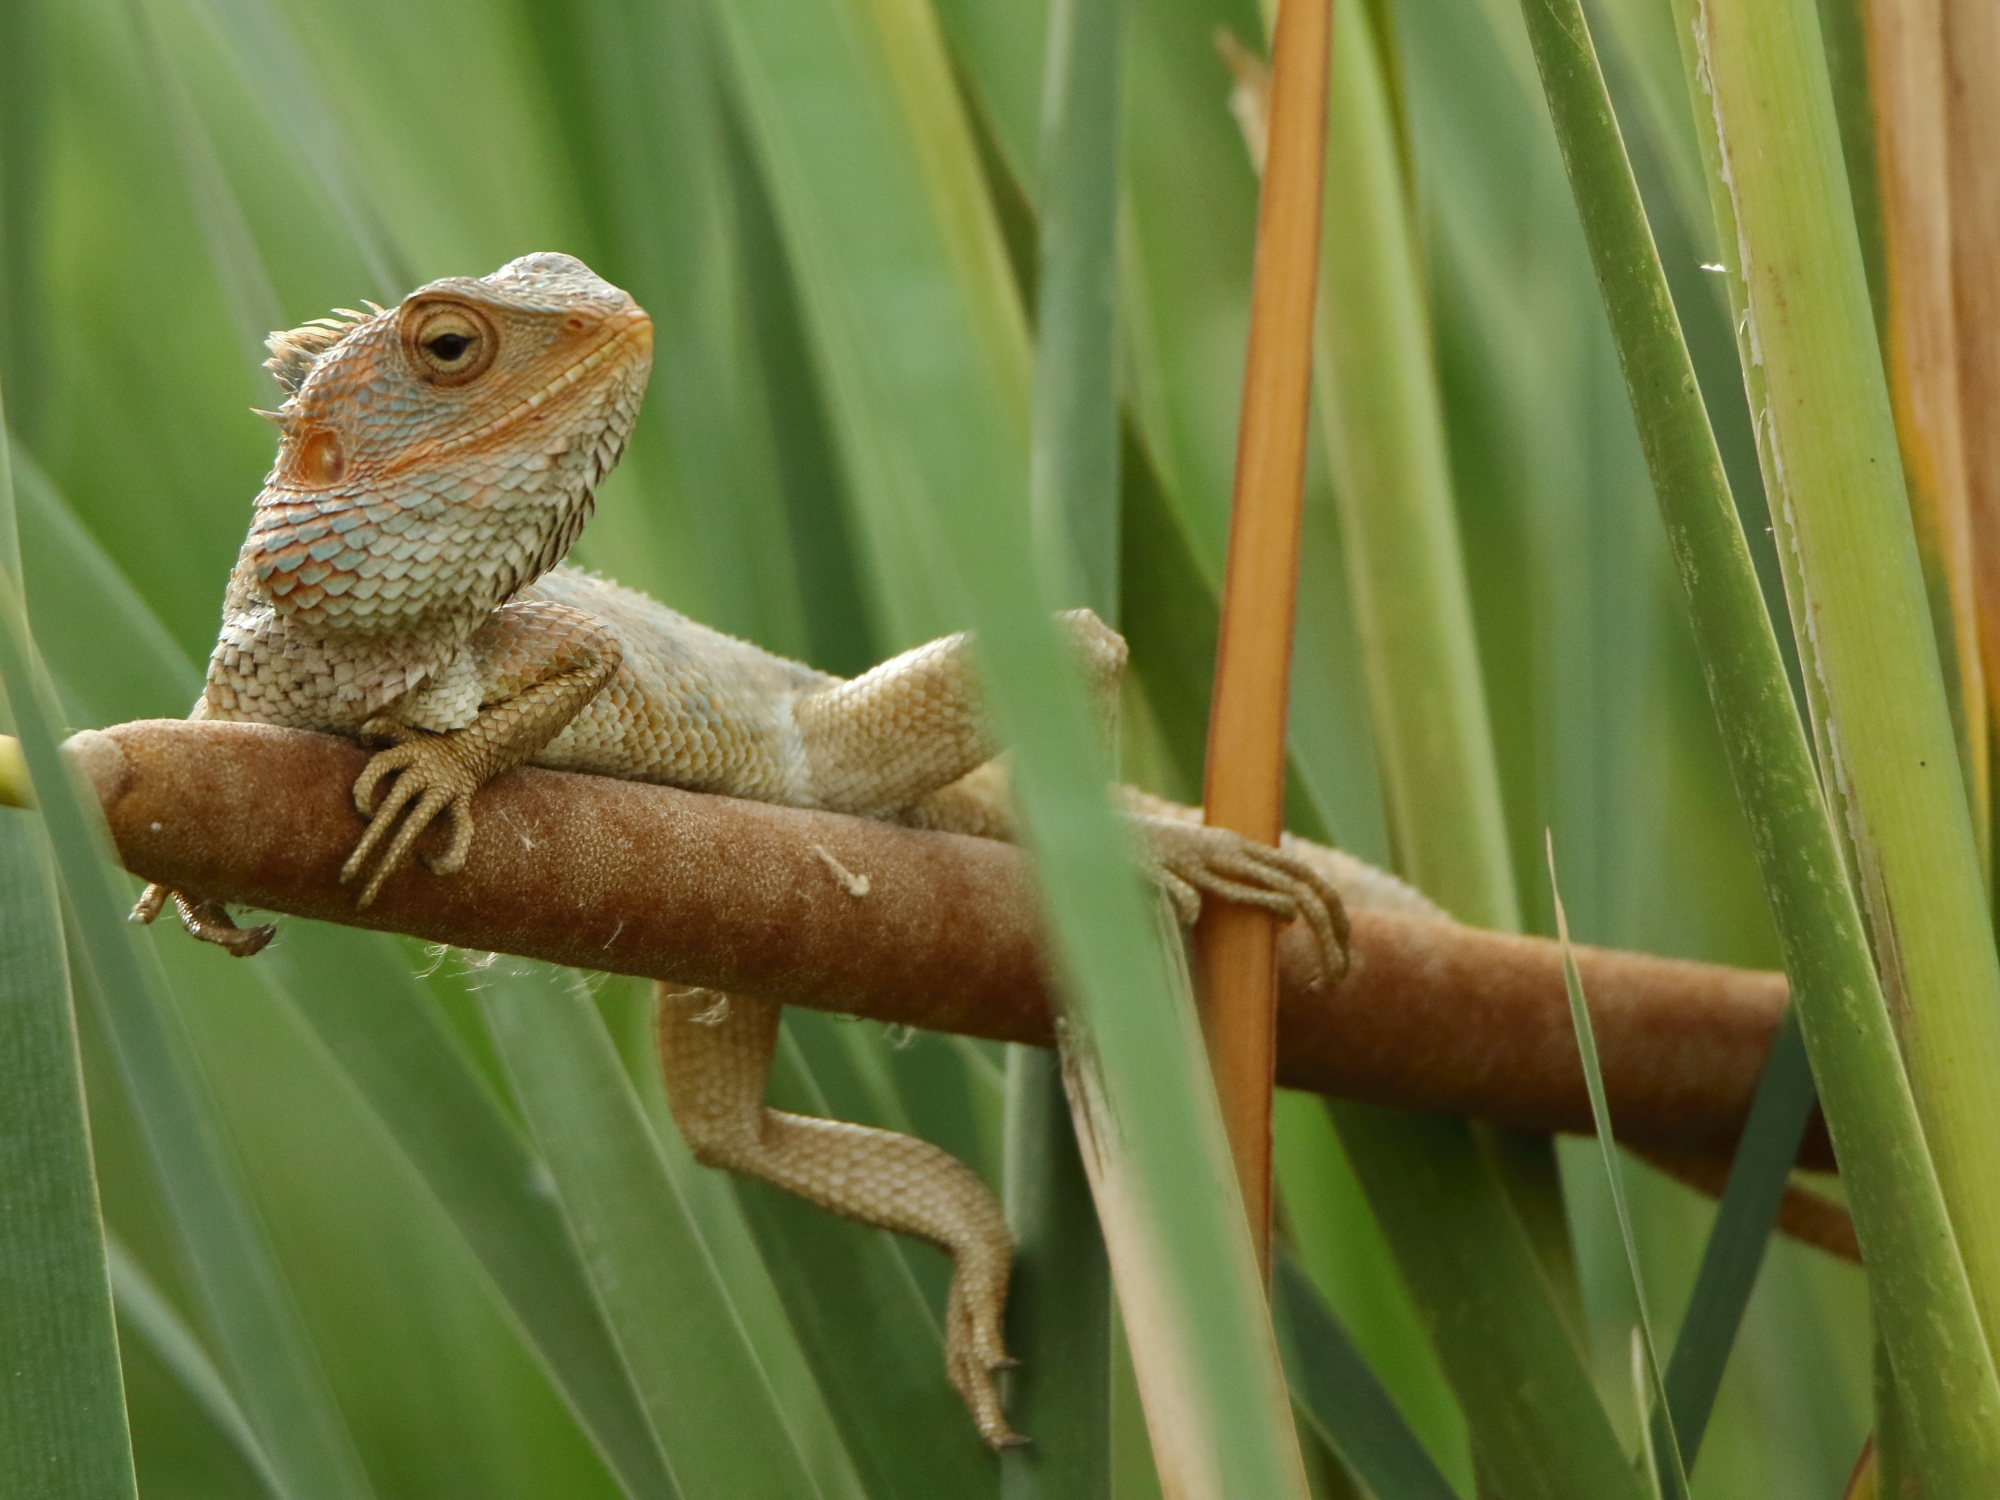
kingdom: Animalia
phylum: Chordata
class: Squamata
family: Agamidae
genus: Calotes
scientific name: Calotes versicolor
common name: Oriental garden lizard
